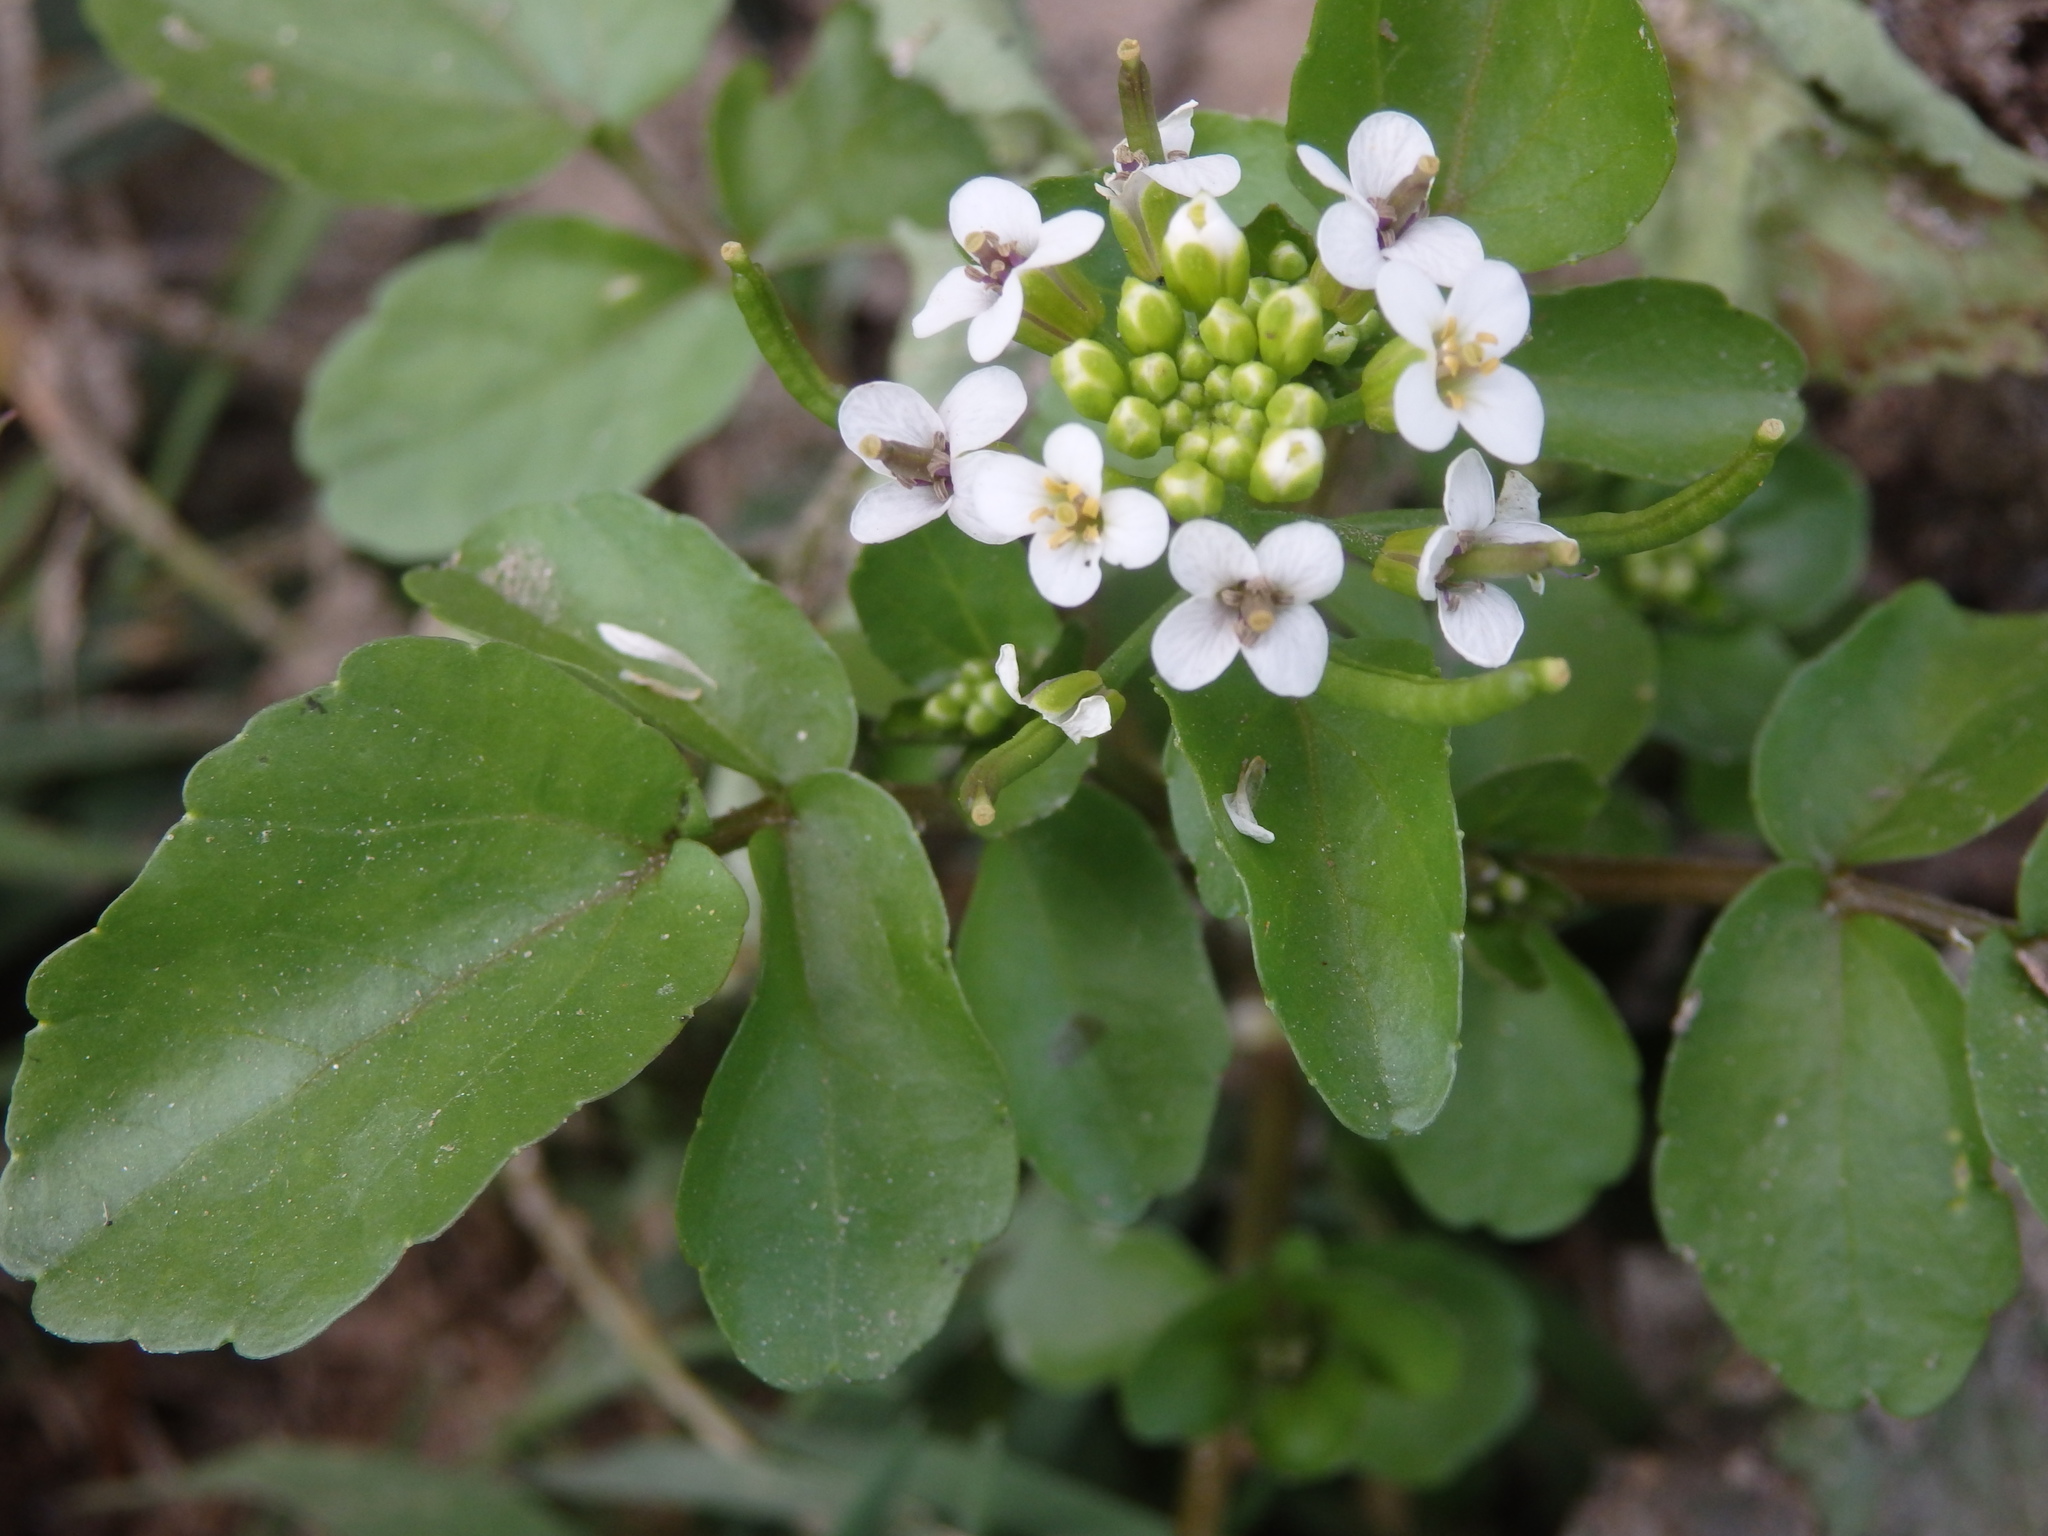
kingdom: Plantae
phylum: Tracheophyta
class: Magnoliopsida
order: Brassicales
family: Brassicaceae
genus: Nasturtium
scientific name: Nasturtium officinale
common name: Watercress
